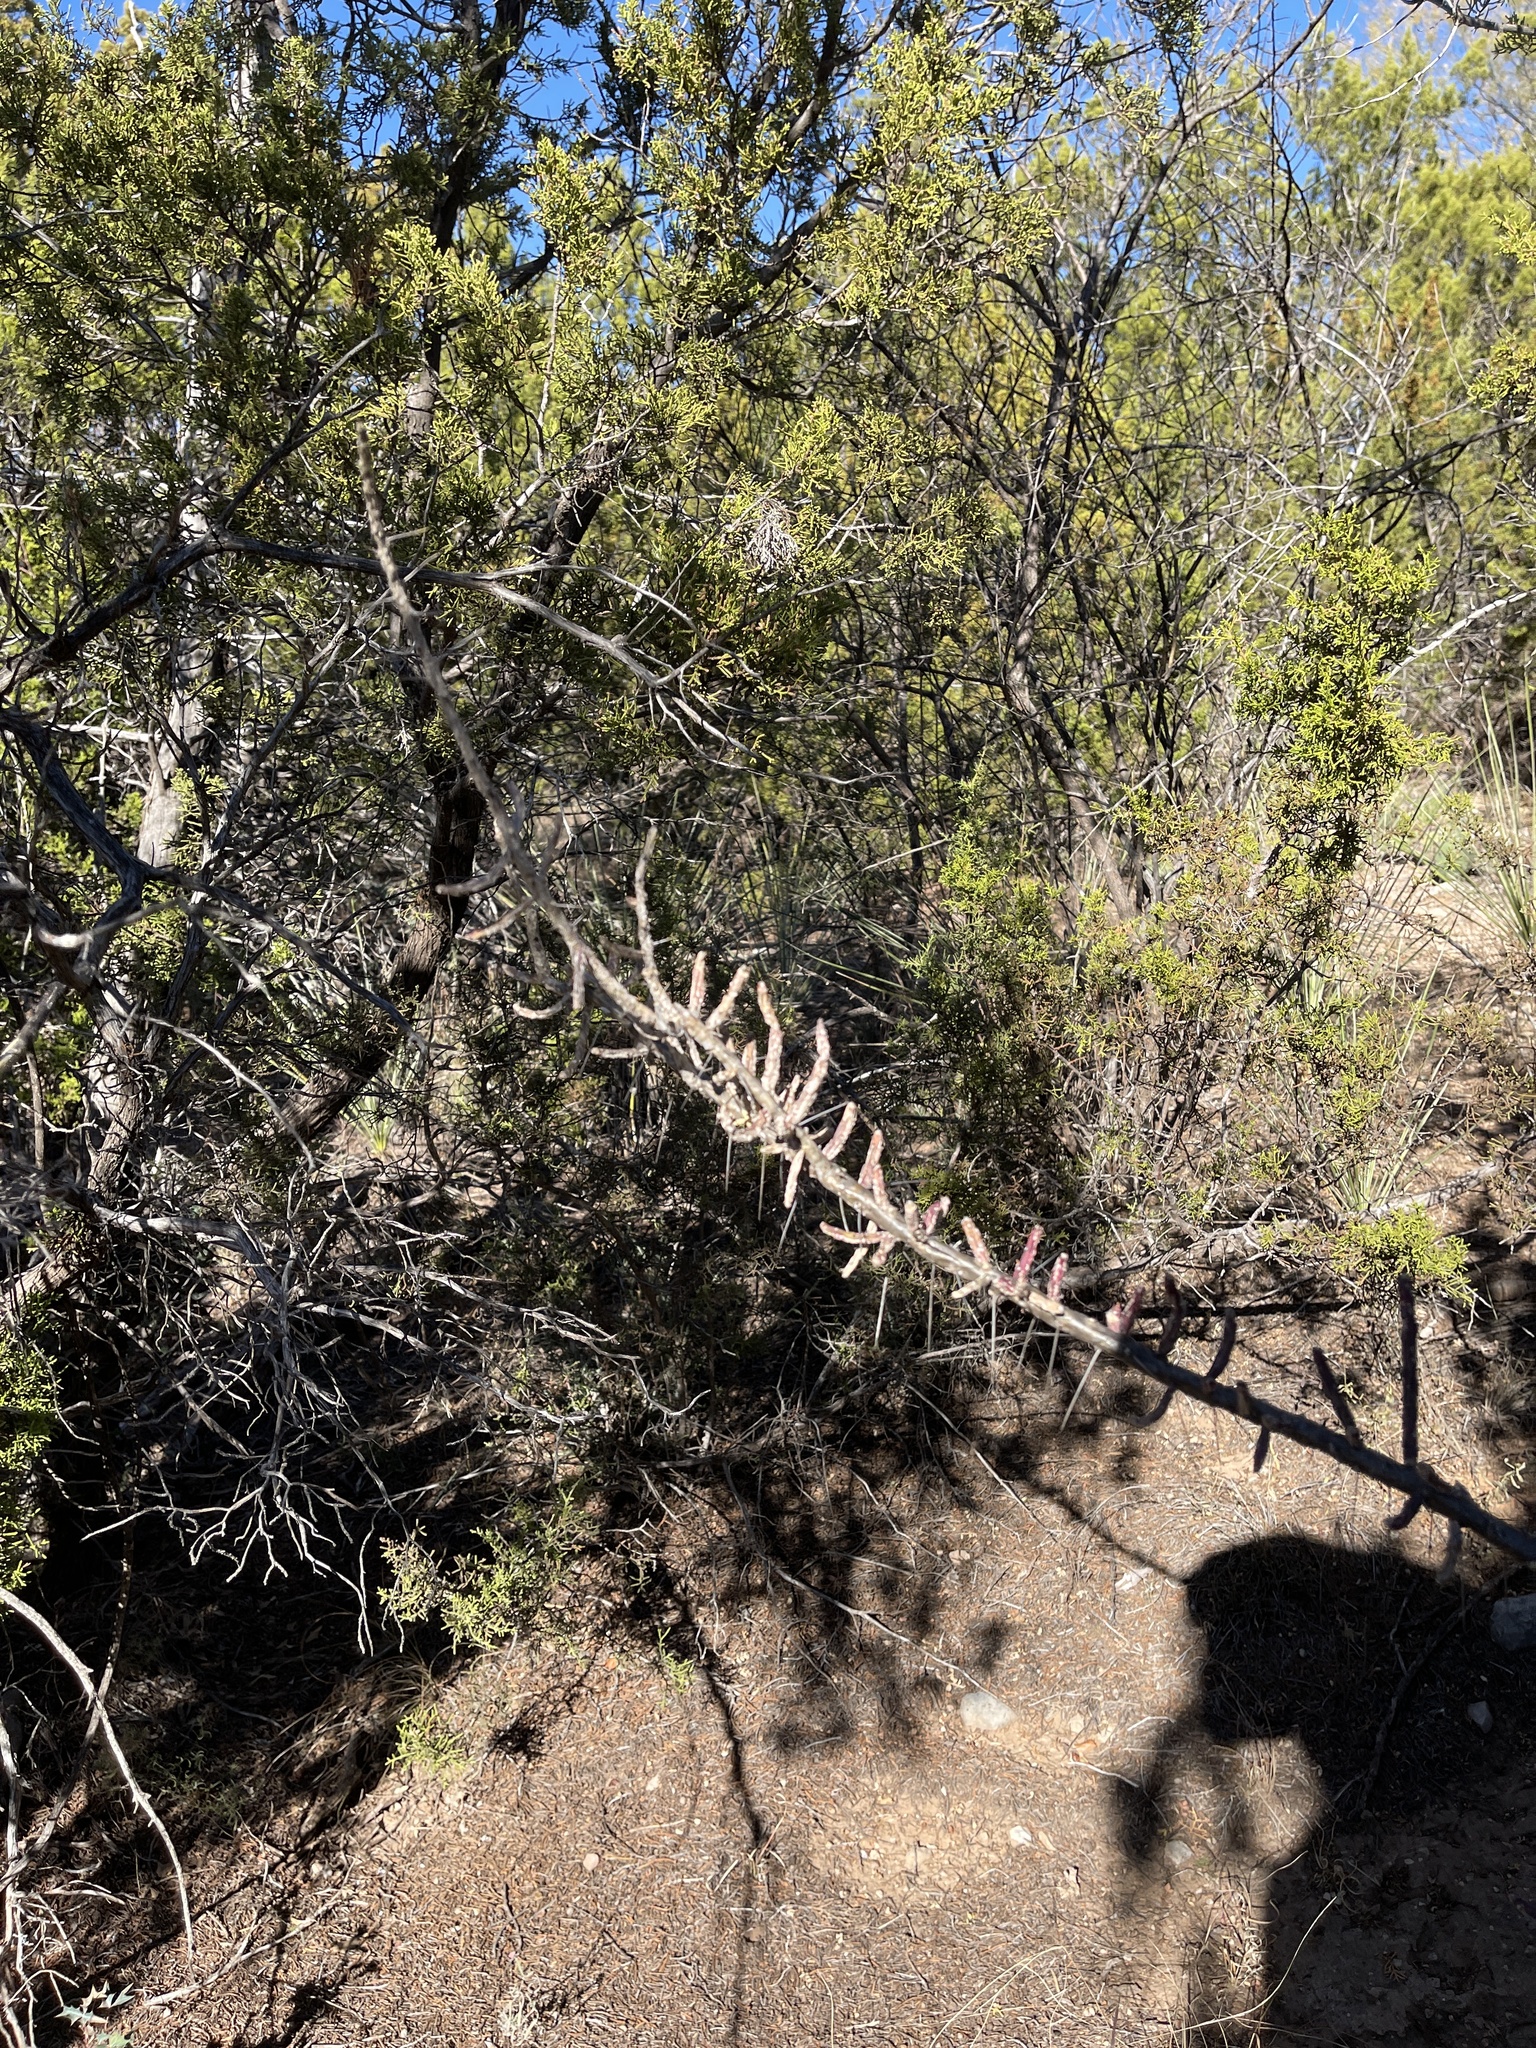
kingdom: Plantae
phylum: Tracheophyta
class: Magnoliopsida
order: Caryophyllales
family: Cactaceae
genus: Cylindropuntia
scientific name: Cylindropuntia leptocaulis
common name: Christmas cactus
